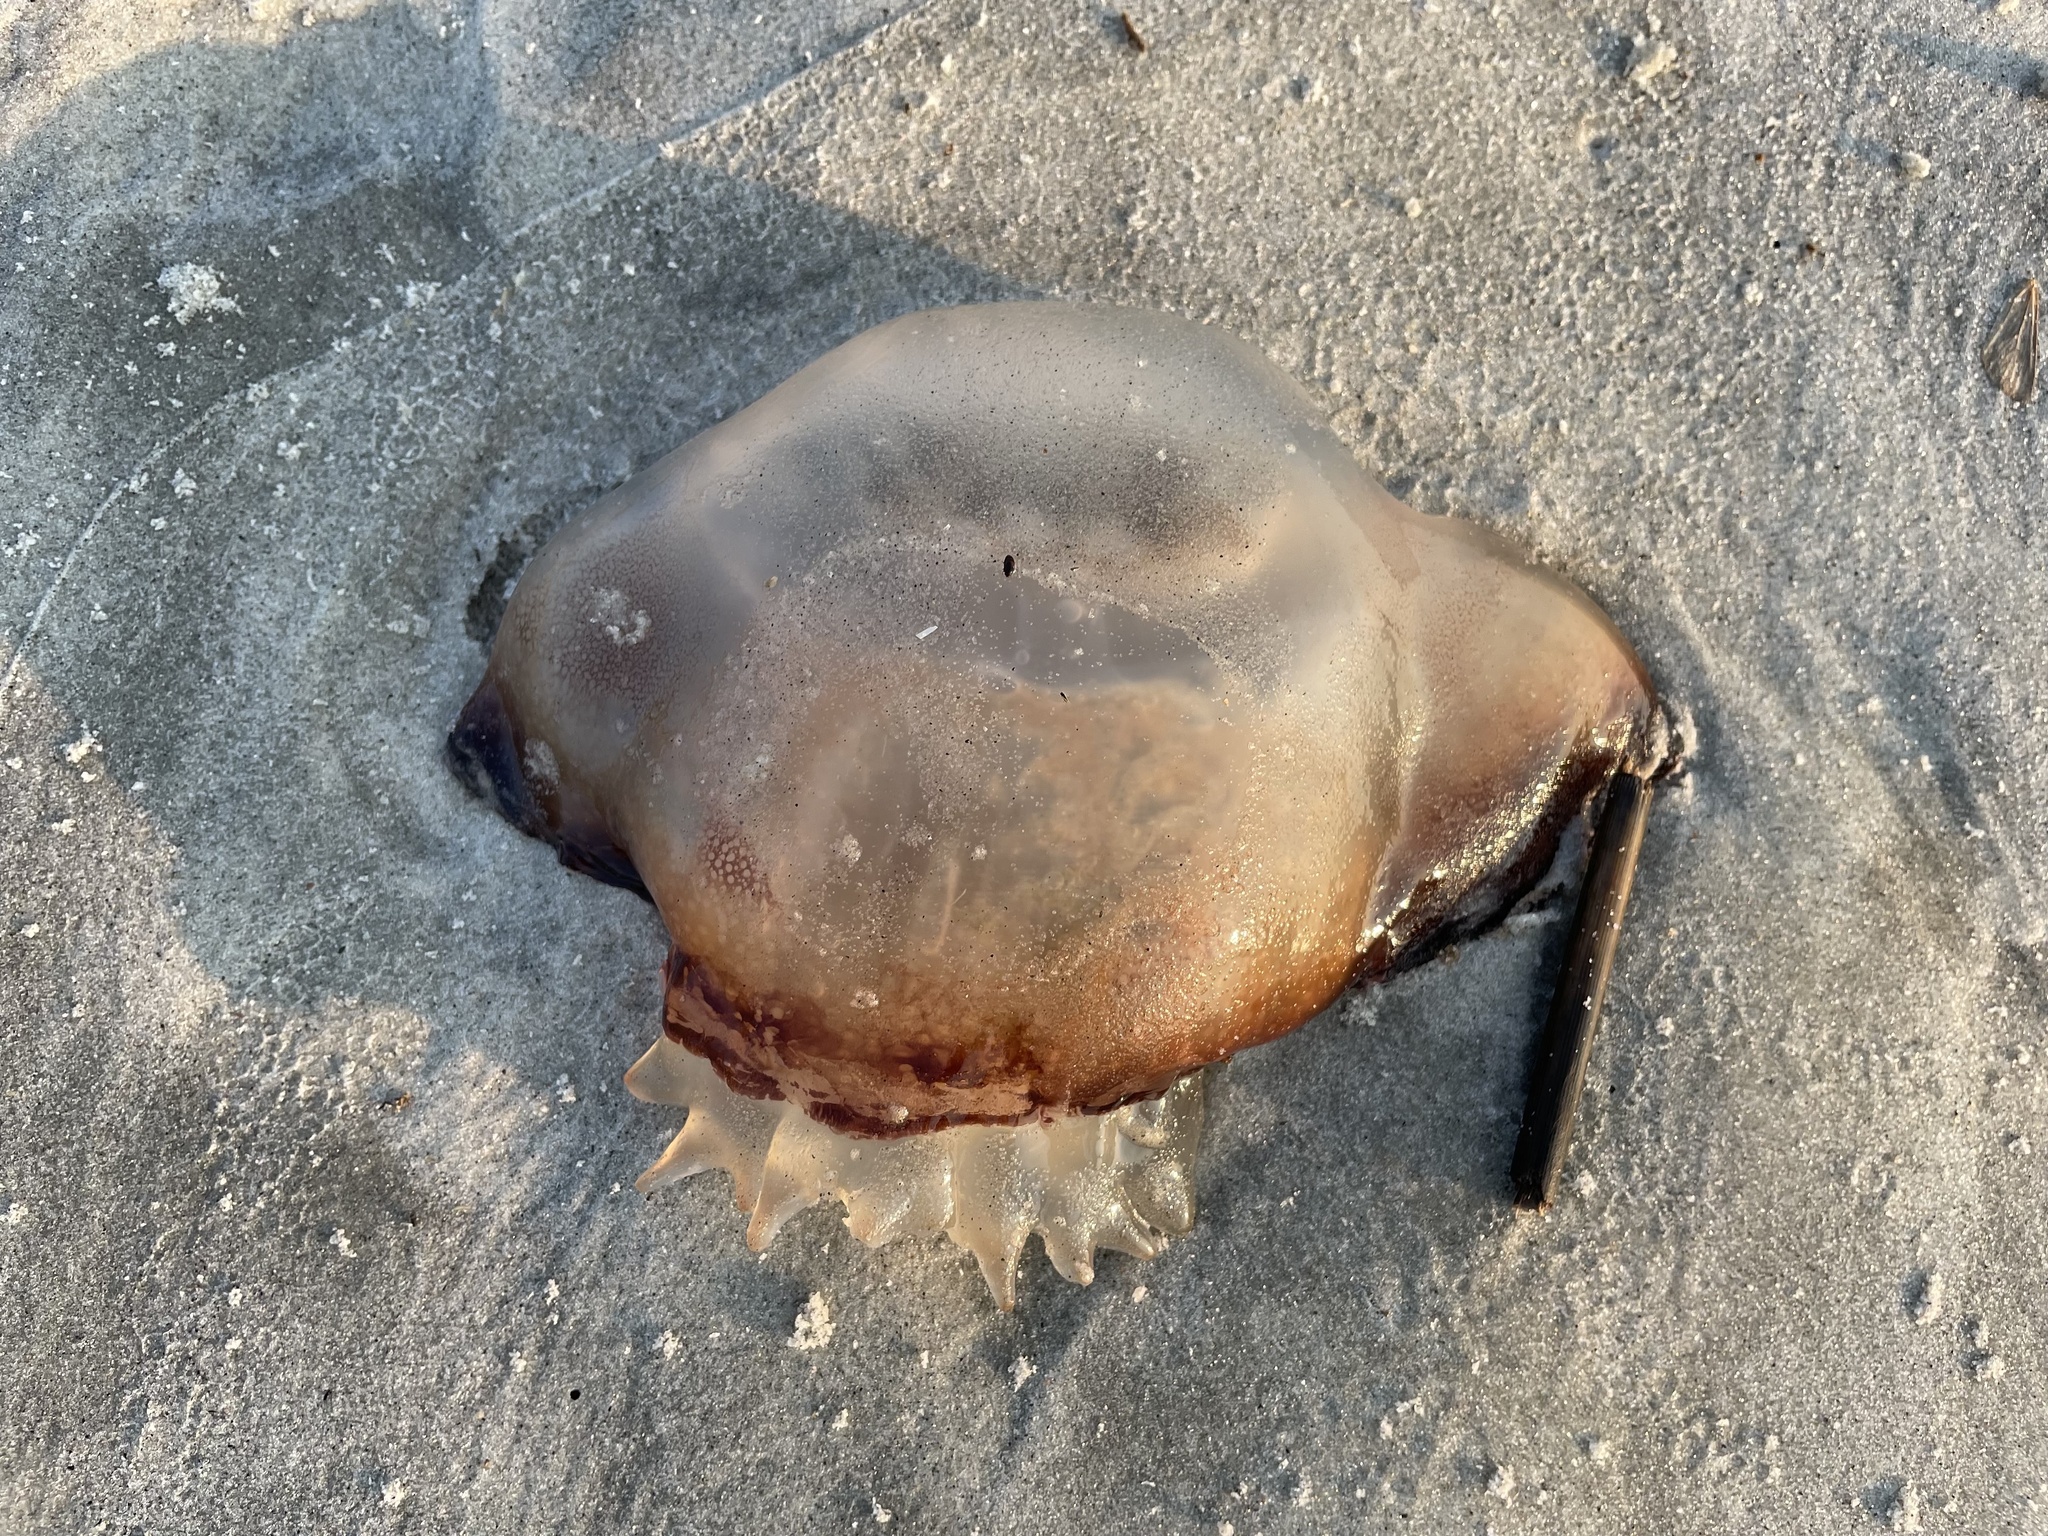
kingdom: Animalia
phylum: Cnidaria
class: Scyphozoa
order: Rhizostomeae
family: Stomolophidae
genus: Stomolophus
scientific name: Stomolophus meleagris
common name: Cabbagehead
